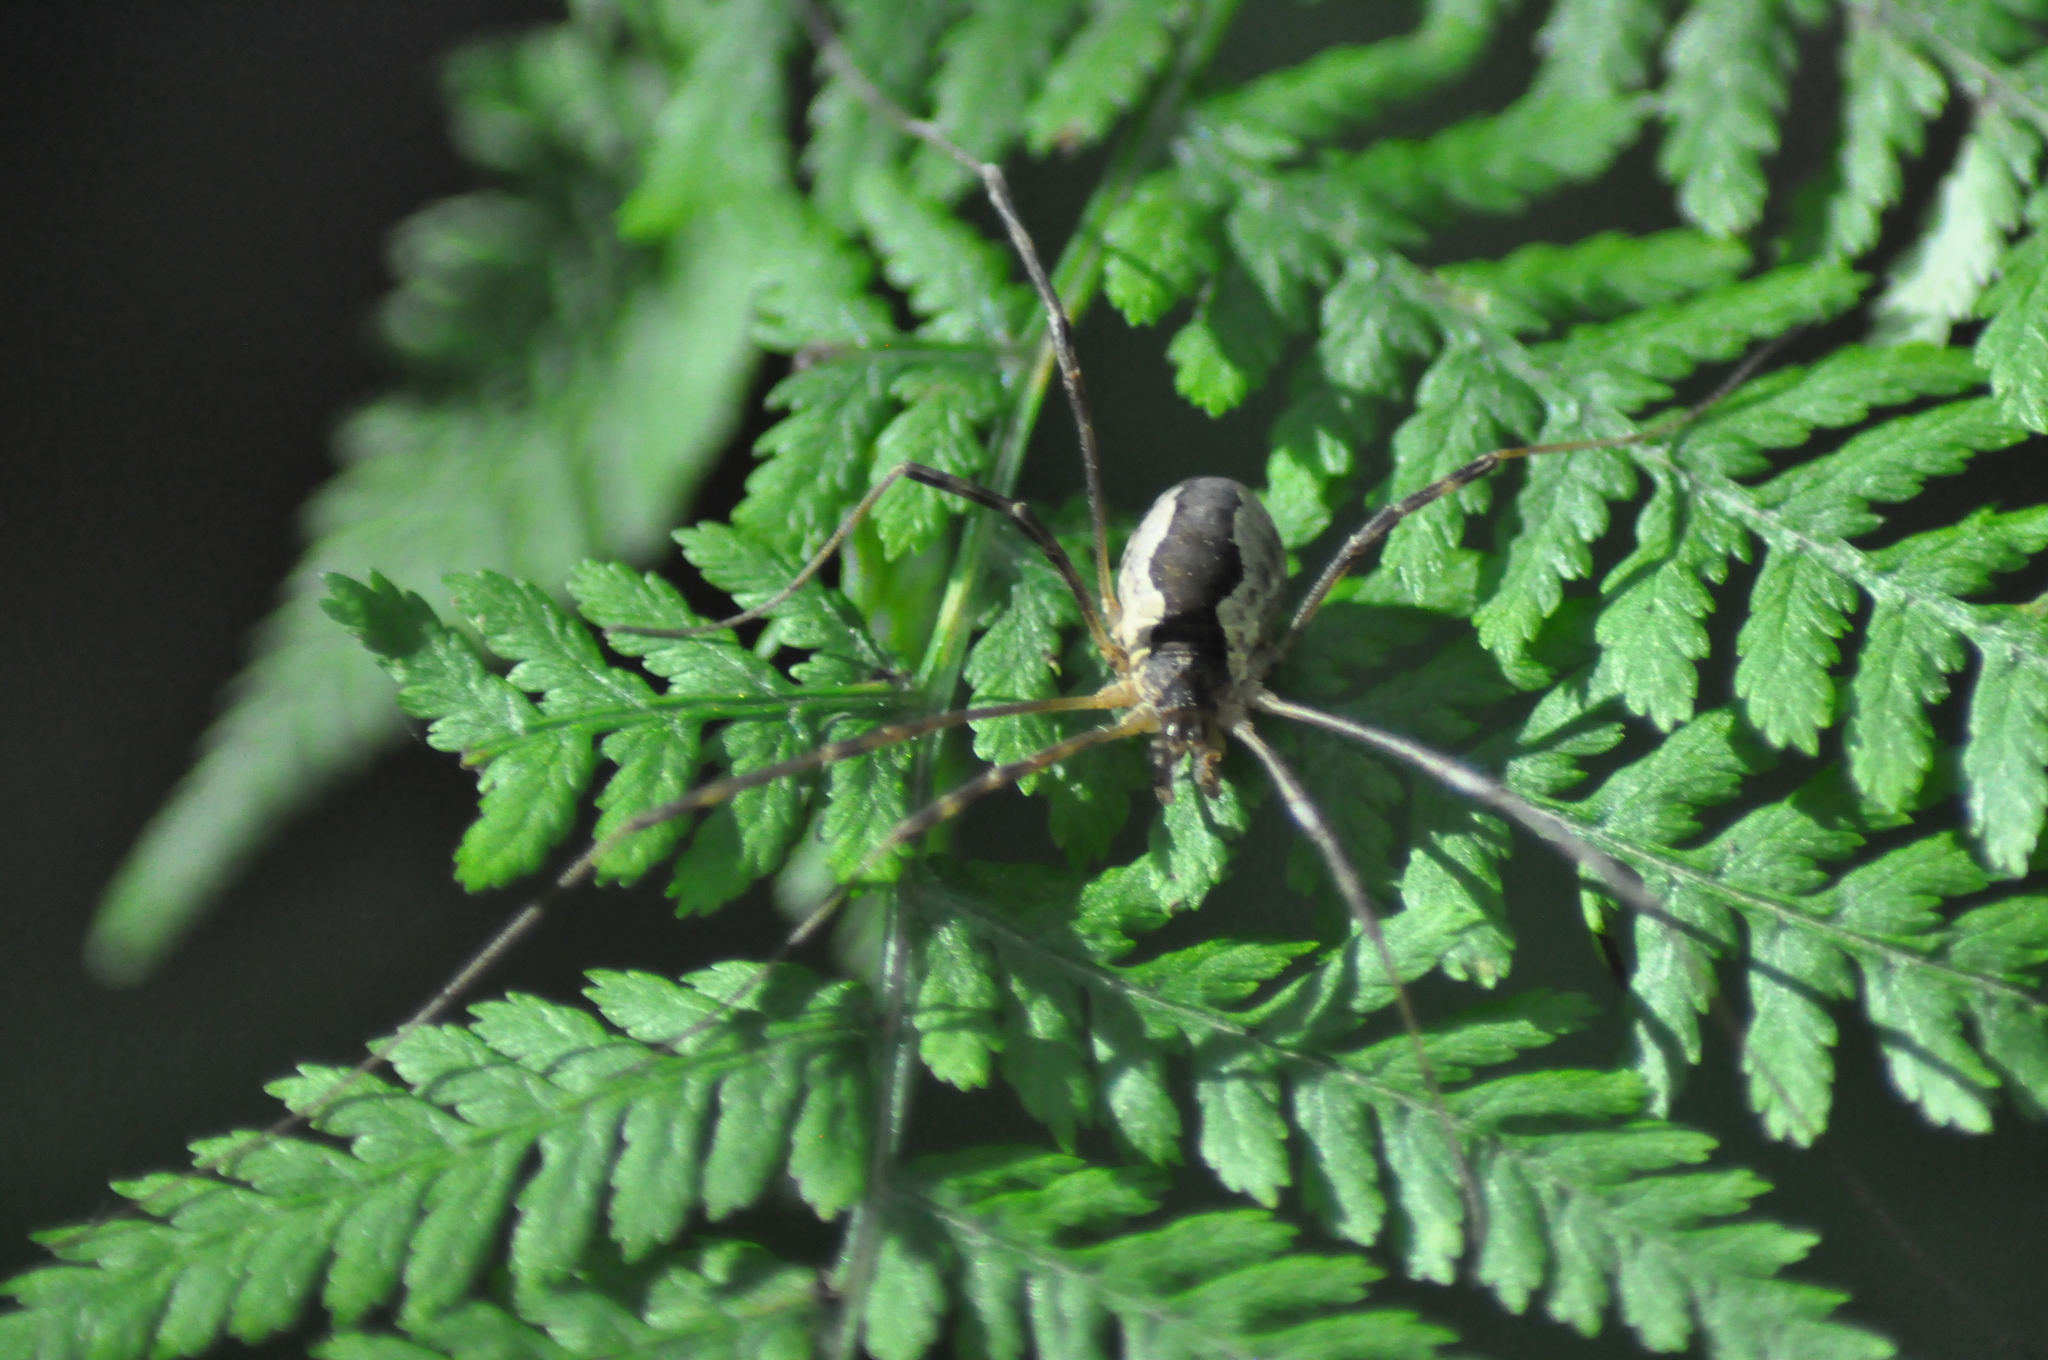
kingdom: Animalia
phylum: Arthropoda
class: Arachnida
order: Opiliones
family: Phalangiidae
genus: Mitopus
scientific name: Mitopus morio
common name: Saddleback harvestman
